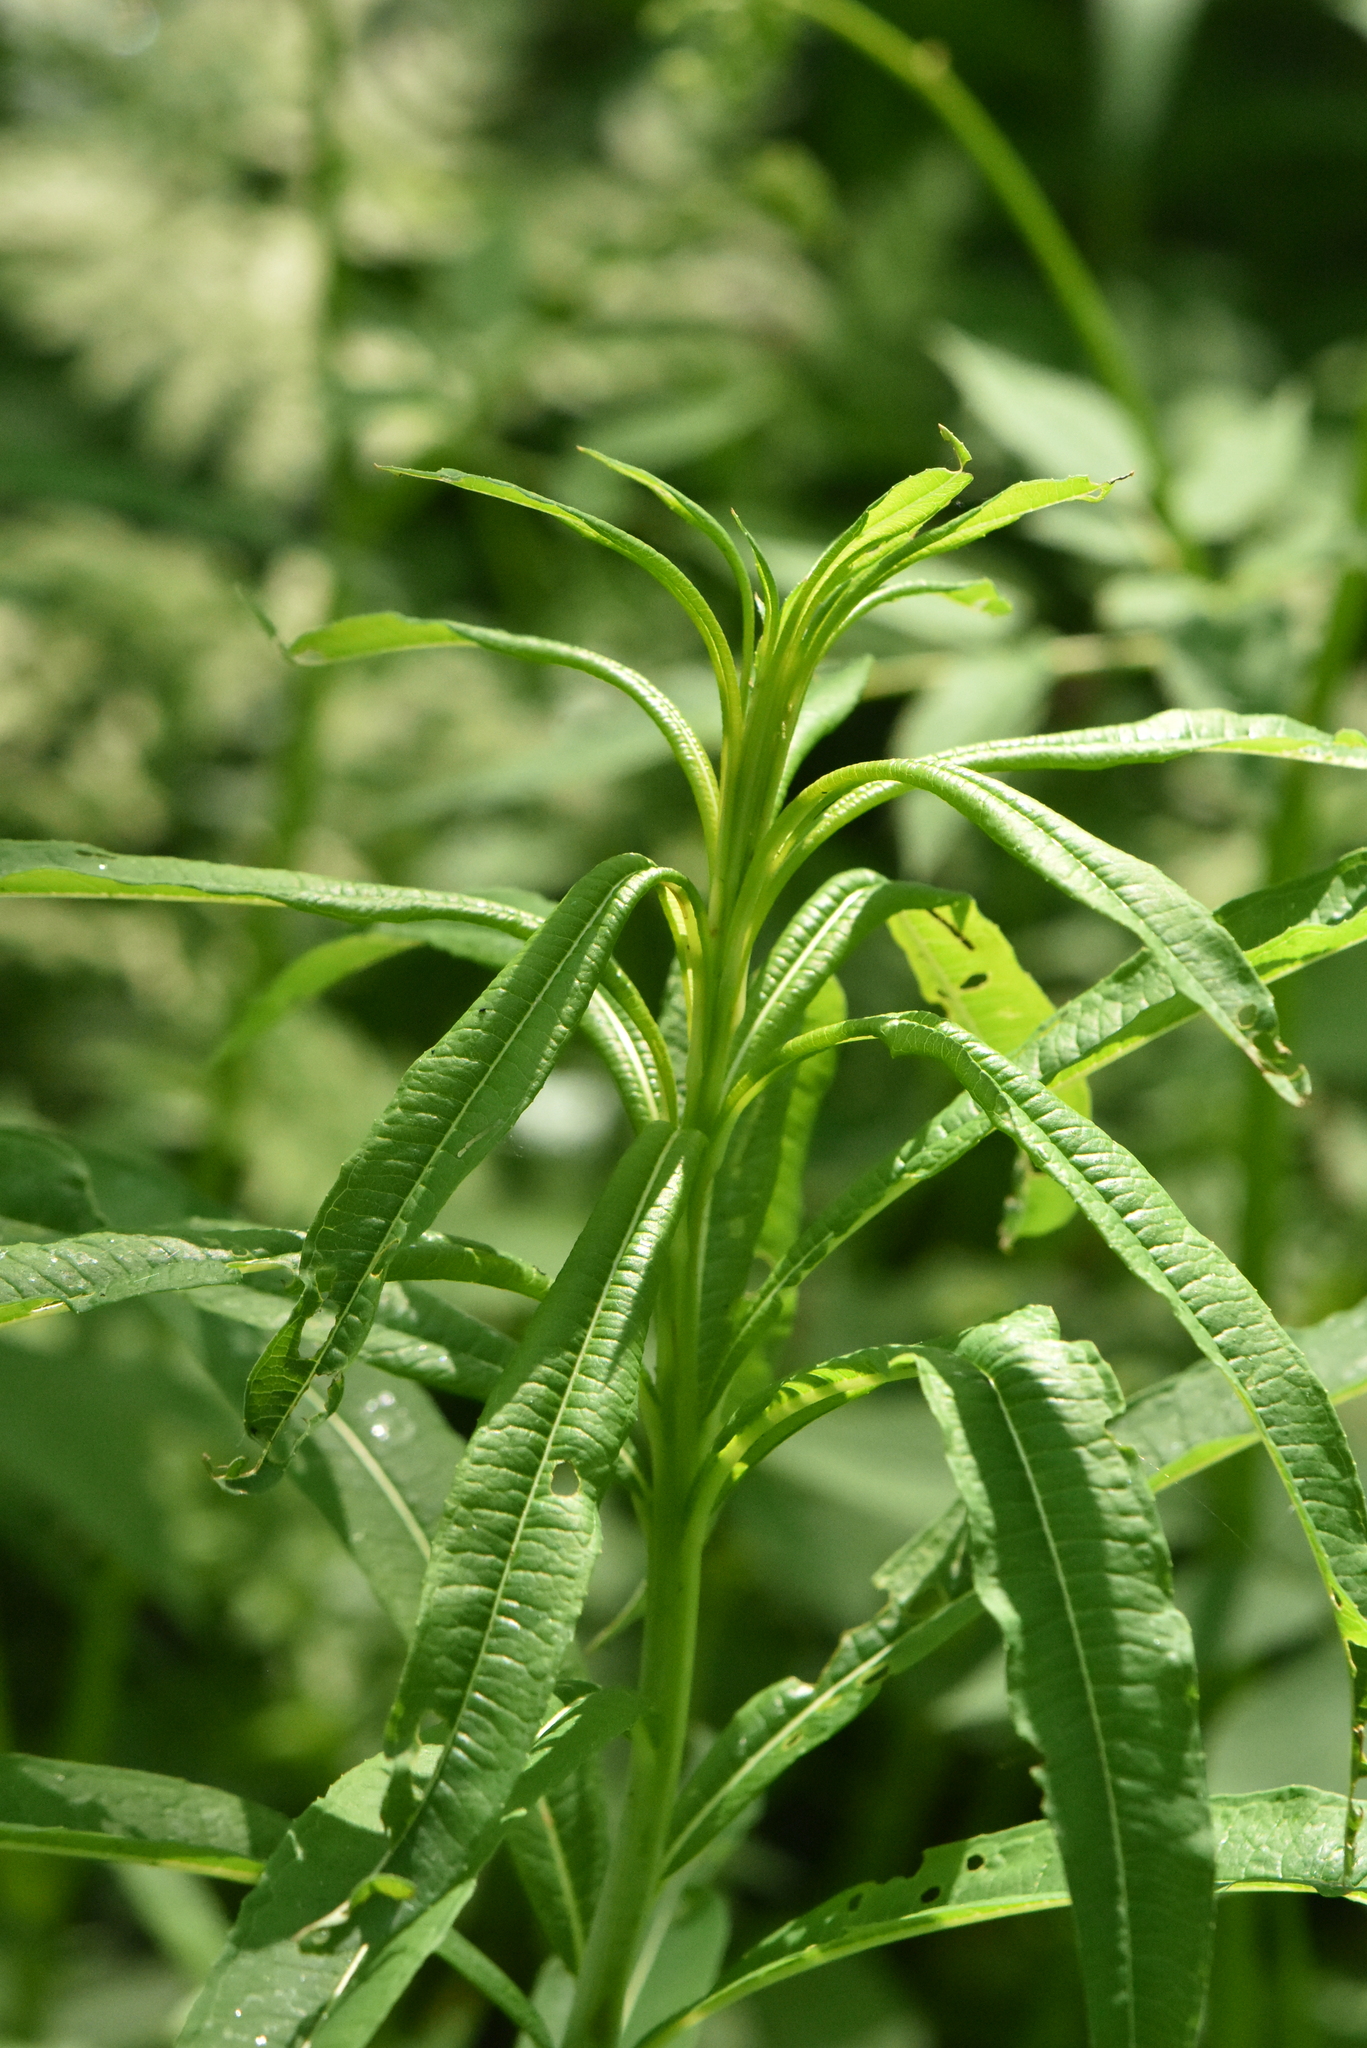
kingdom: Plantae
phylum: Tracheophyta
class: Magnoliopsida
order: Myrtales
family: Onagraceae
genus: Chamaenerion
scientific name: Chamaenerion angustifolium
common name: Fireweed
